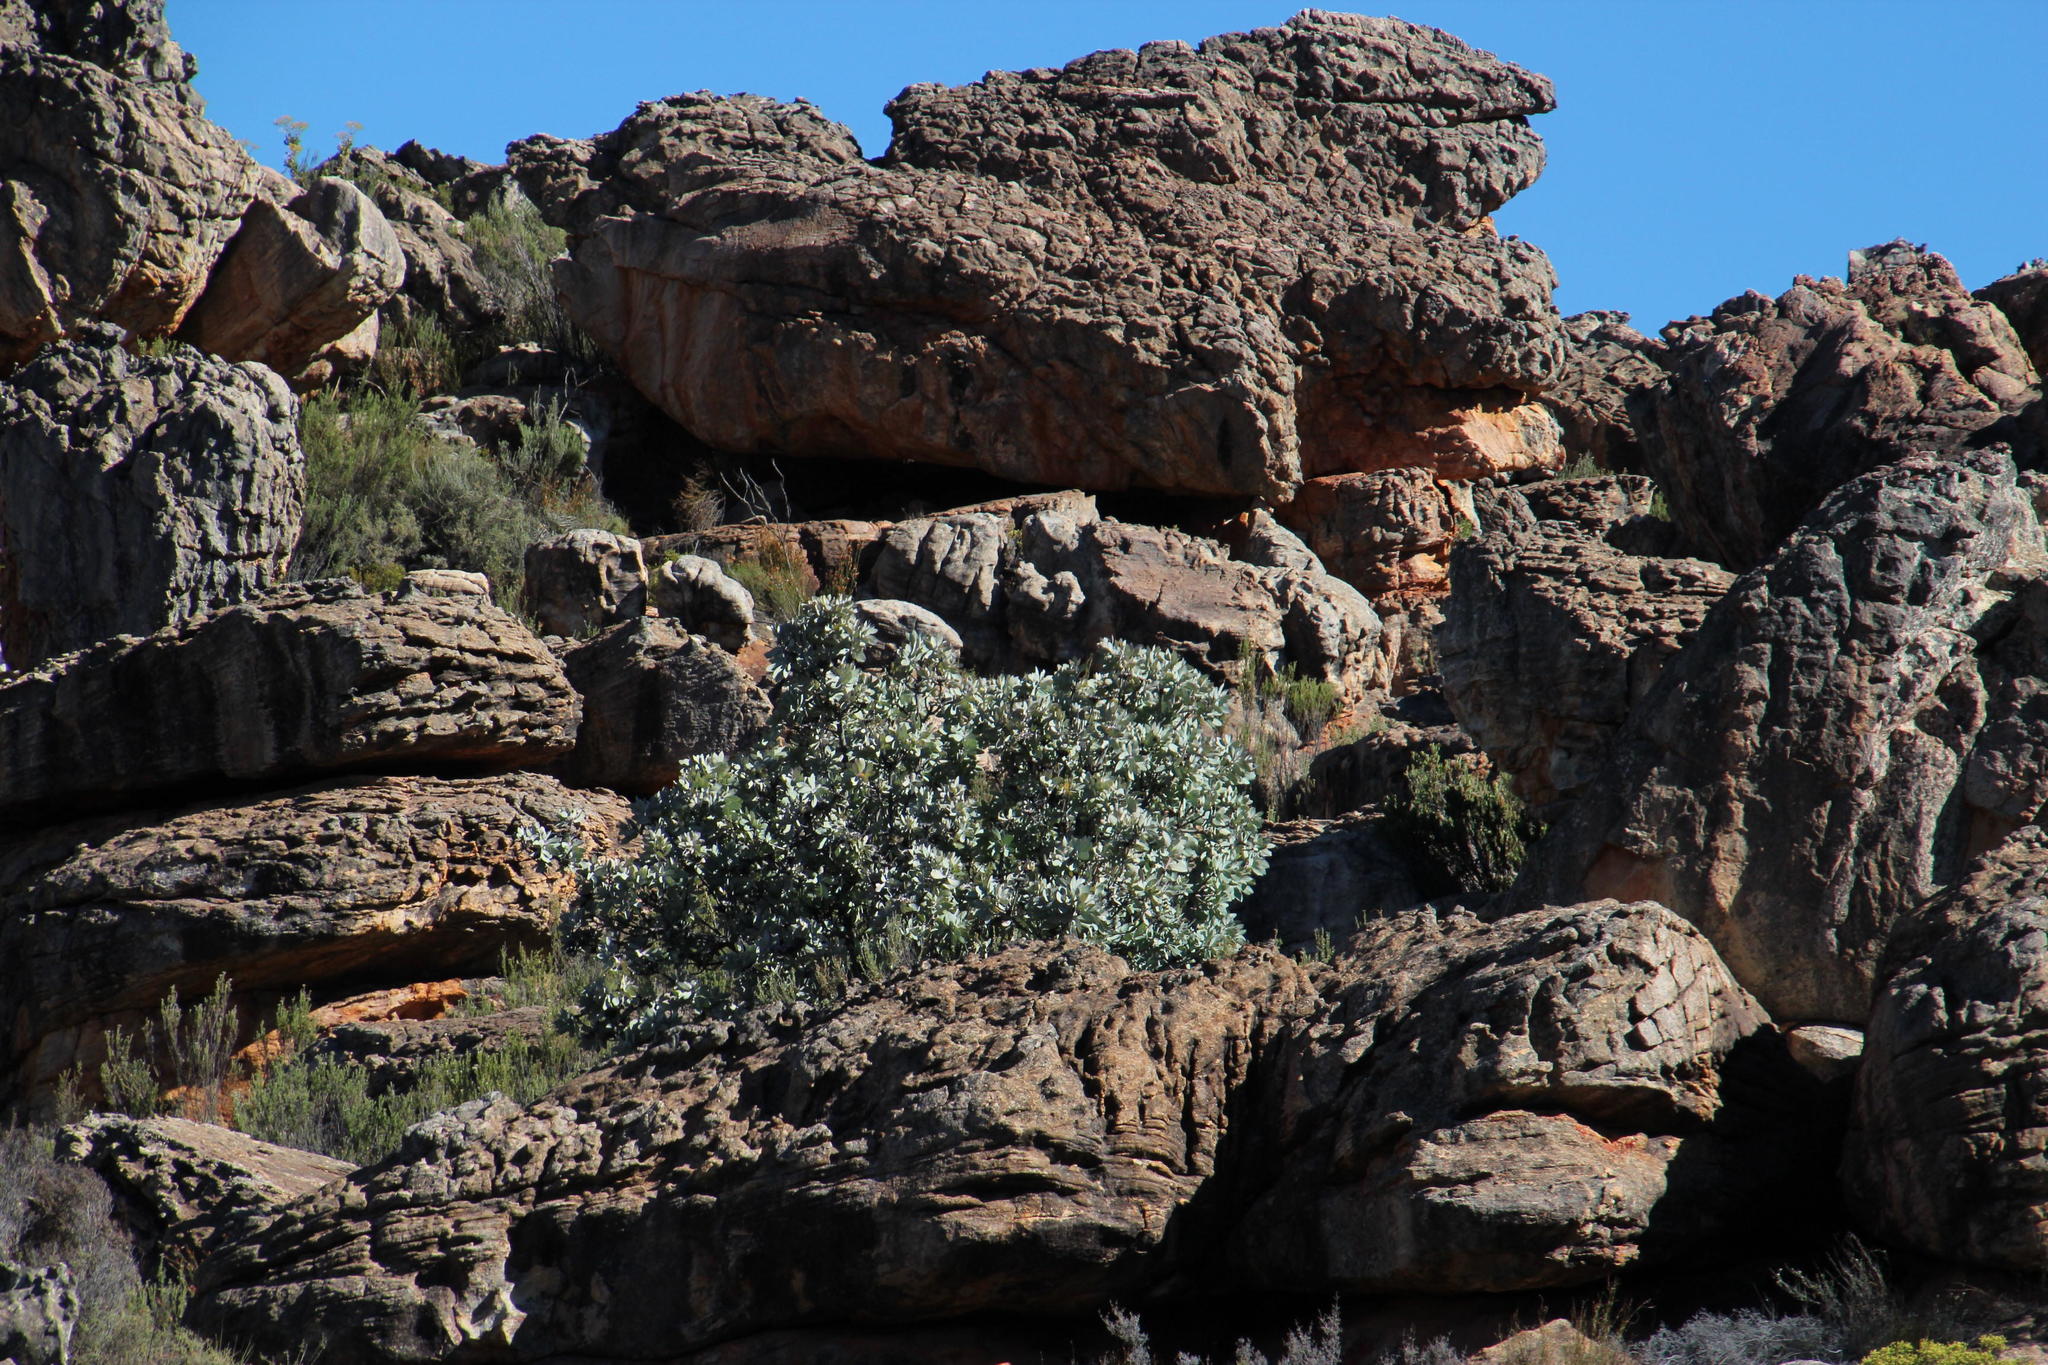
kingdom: Plantae
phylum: Tracheophyta
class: Magnoliopsida
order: Proteales
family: Proteaceae
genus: Protea
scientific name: Protea nitida
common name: Tree protea
